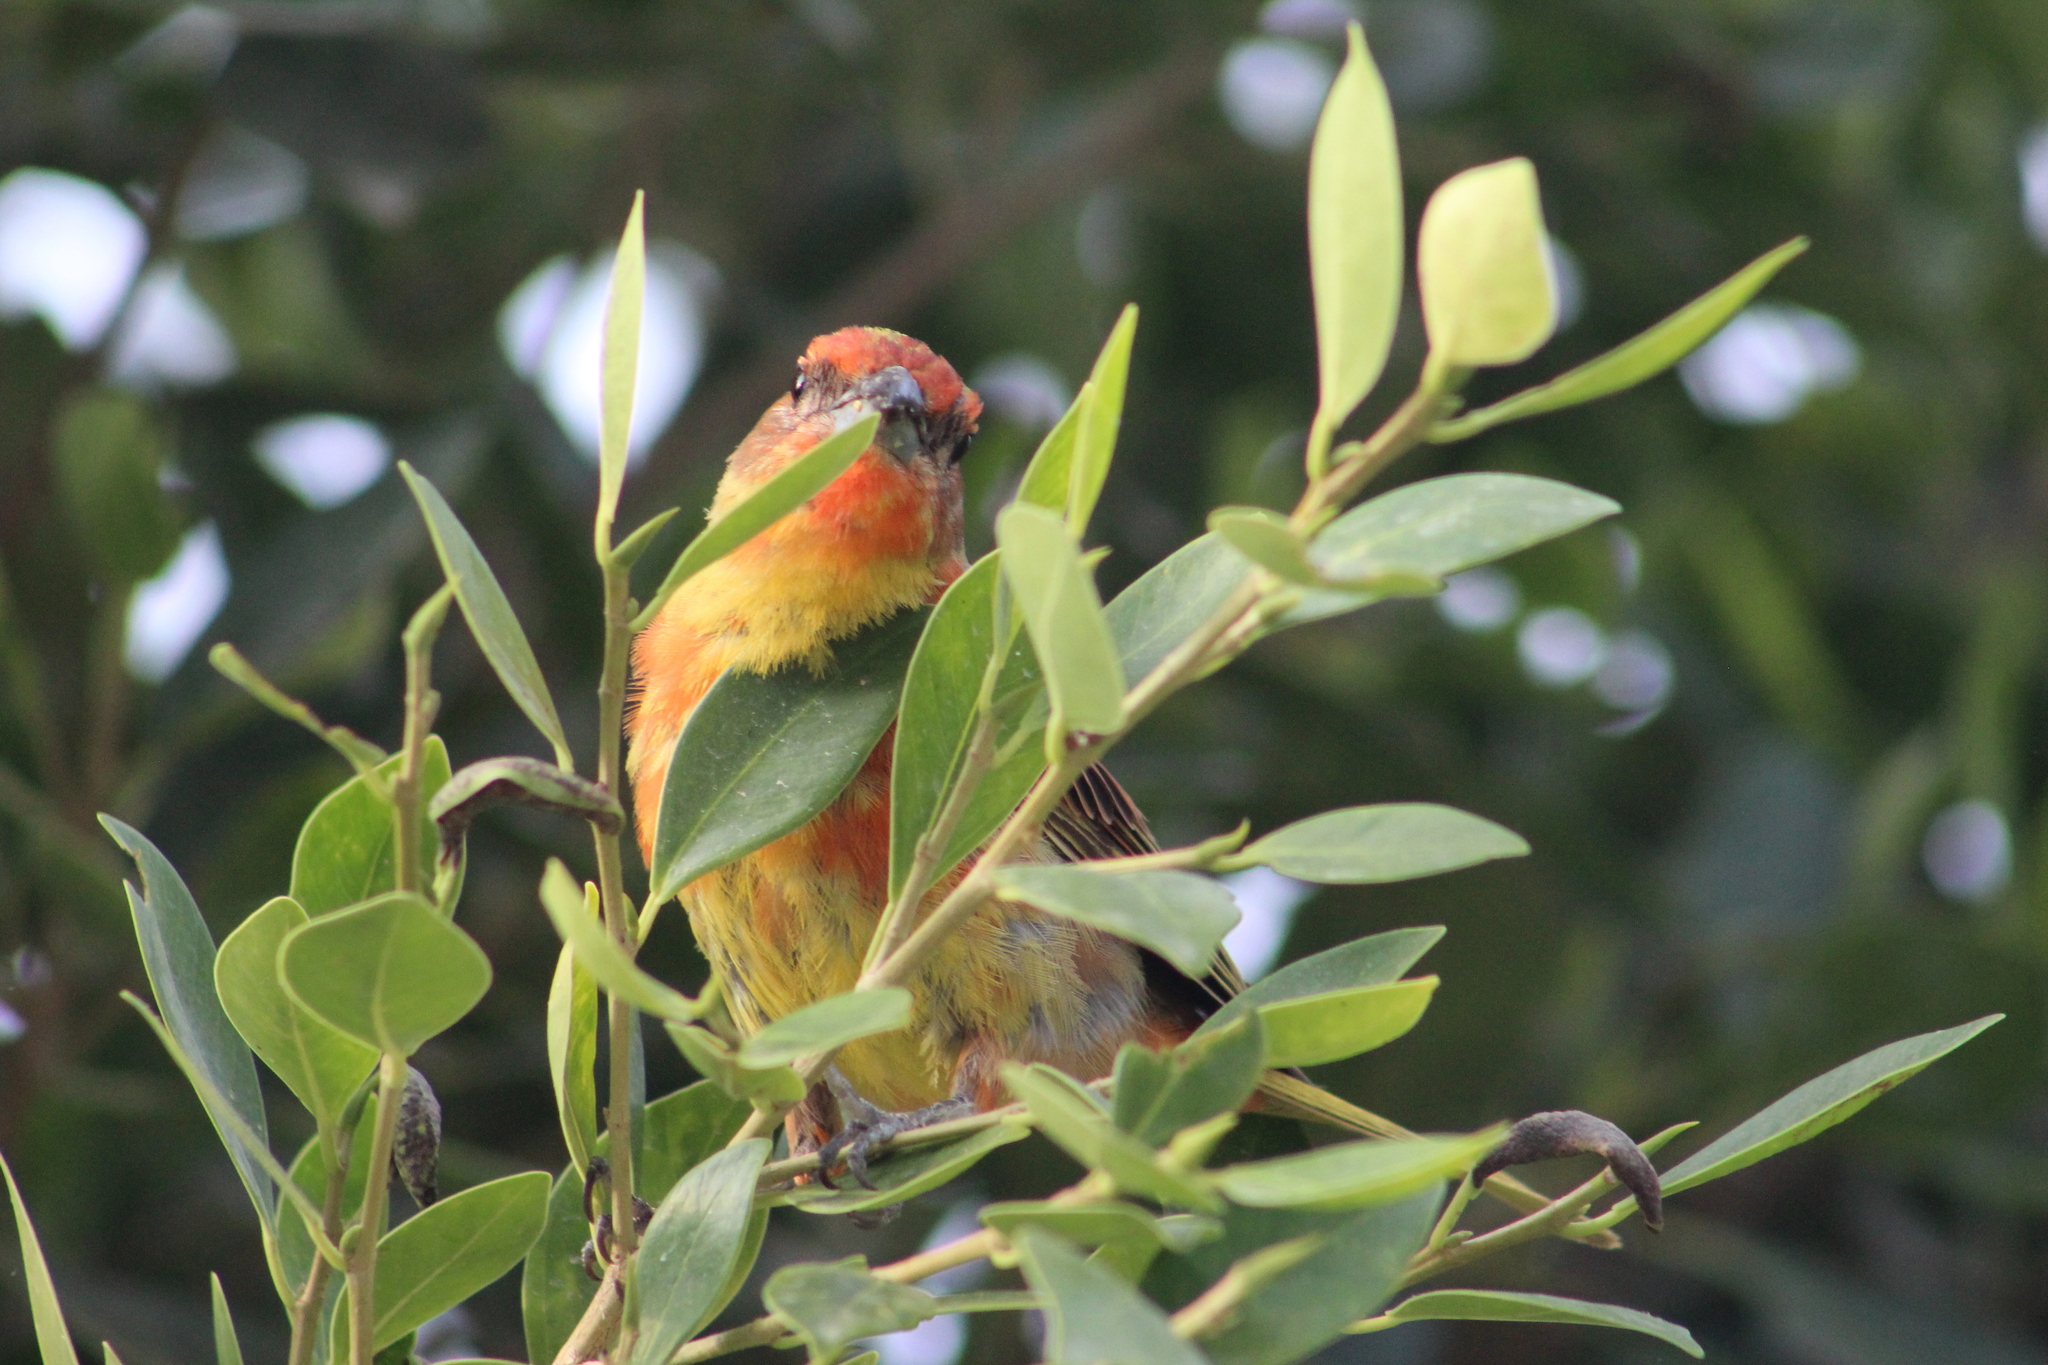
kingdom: Animalia
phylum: Chordata
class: Aves
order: Passeriformes
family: Cardinalidae
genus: Piranga
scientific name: Piranga flava
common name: Red tanager
